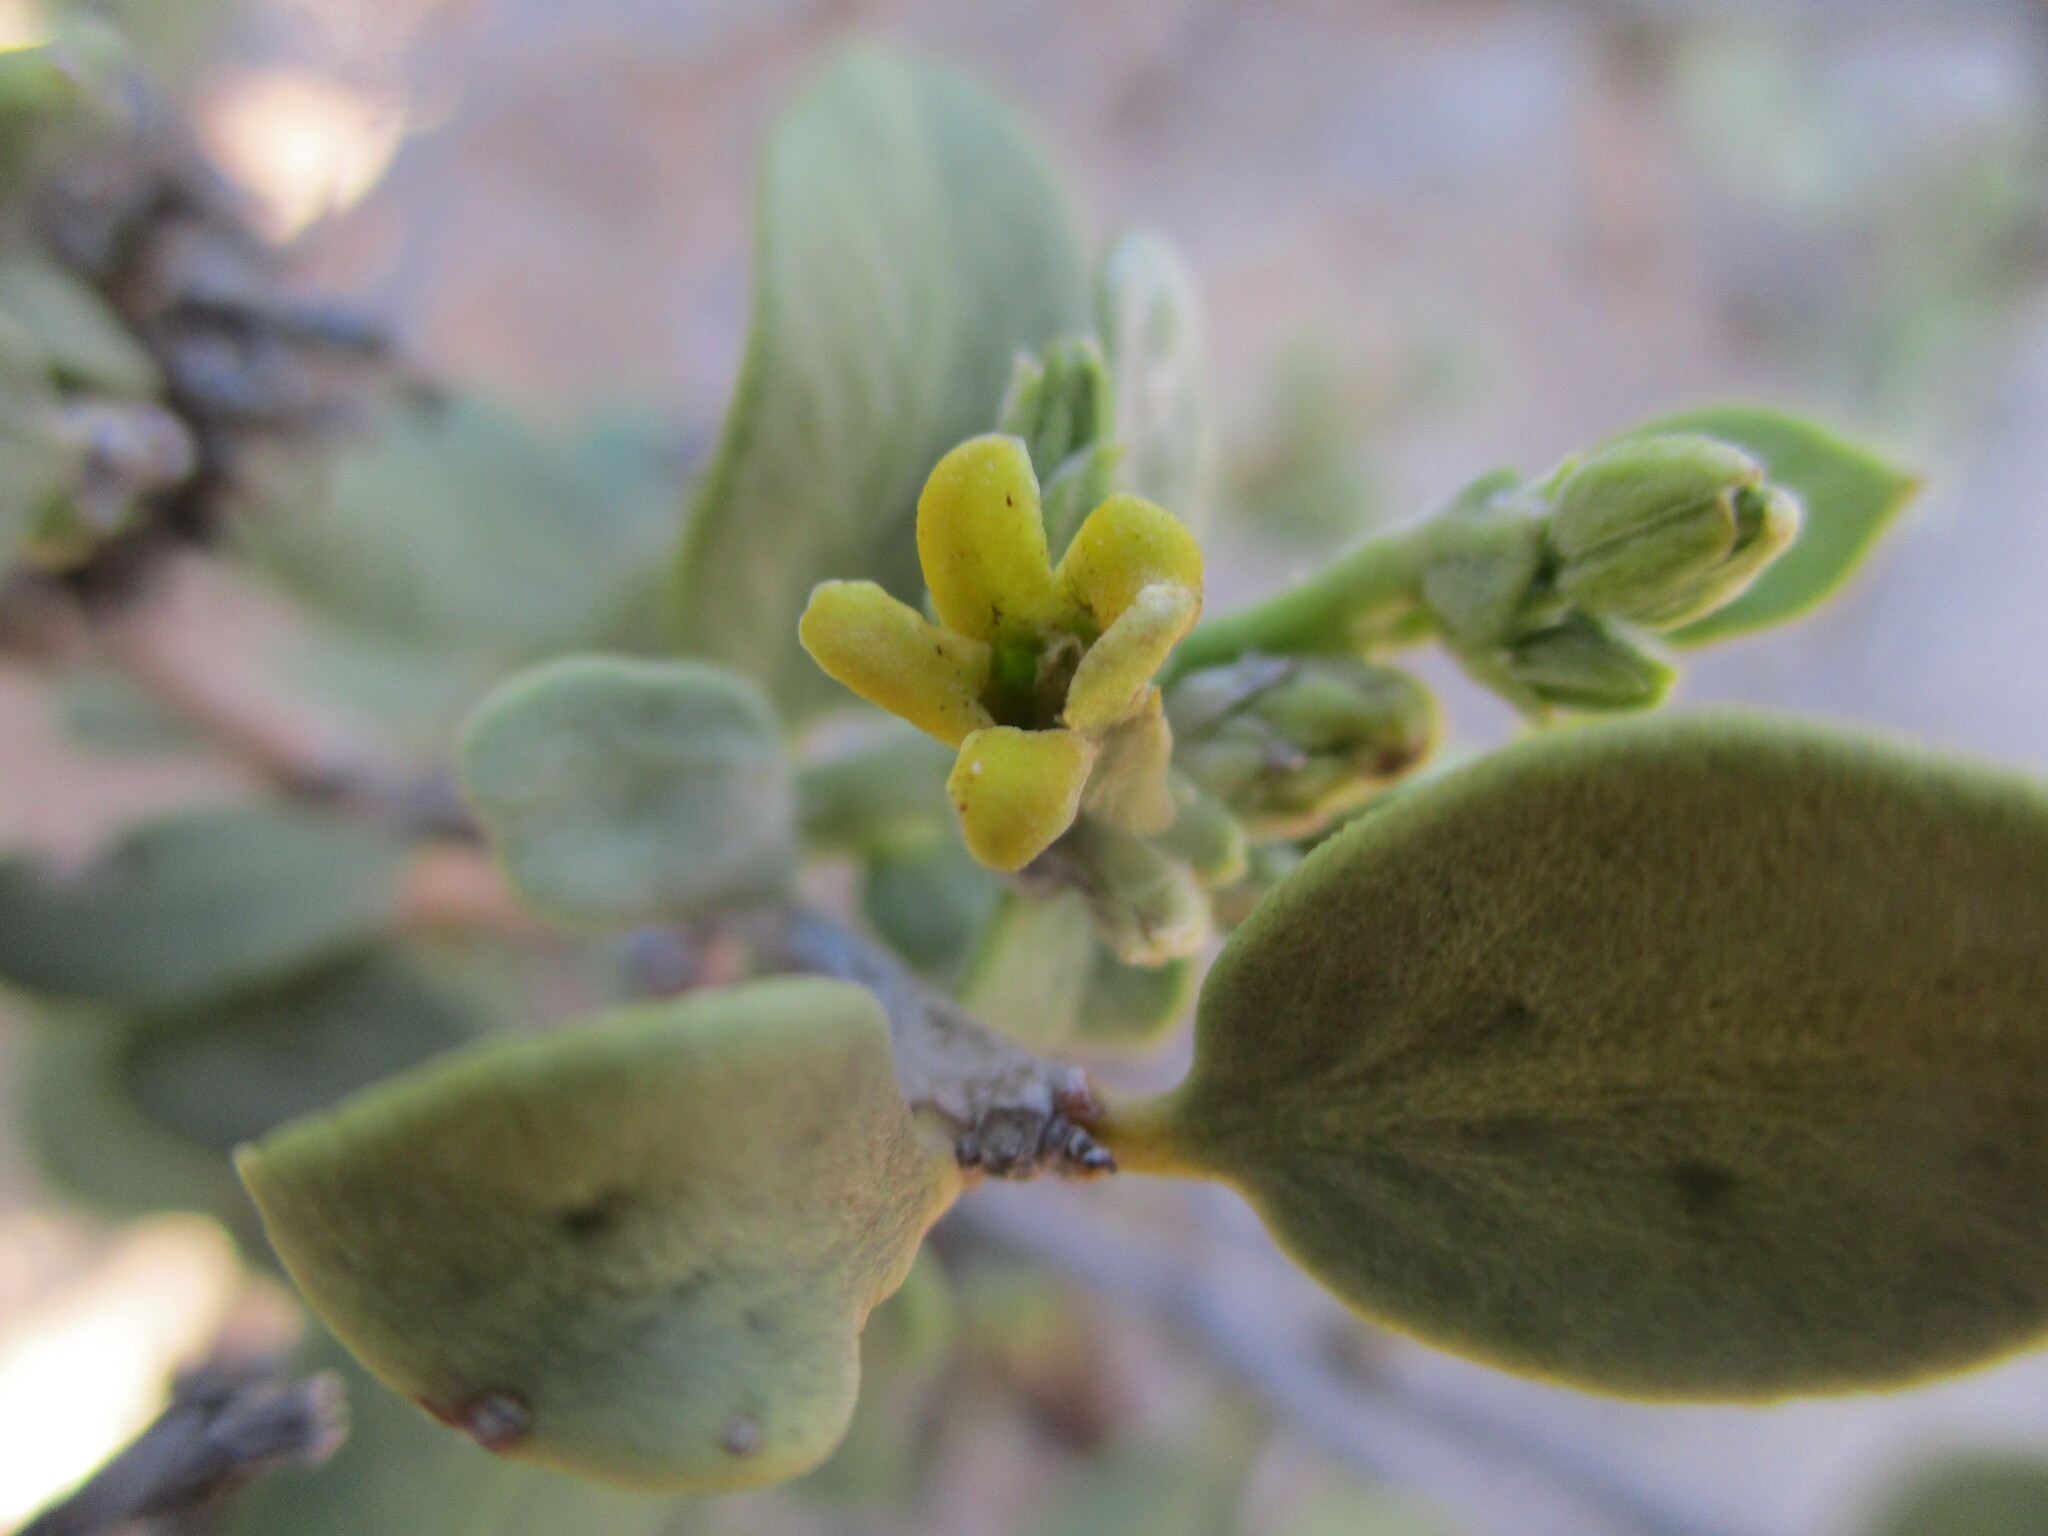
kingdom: Plantae
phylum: Tracheophyta
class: Magnoliopsida
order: Gentianales
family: Apocynaceae
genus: Ectadium
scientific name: Ectadium rotundifolium
